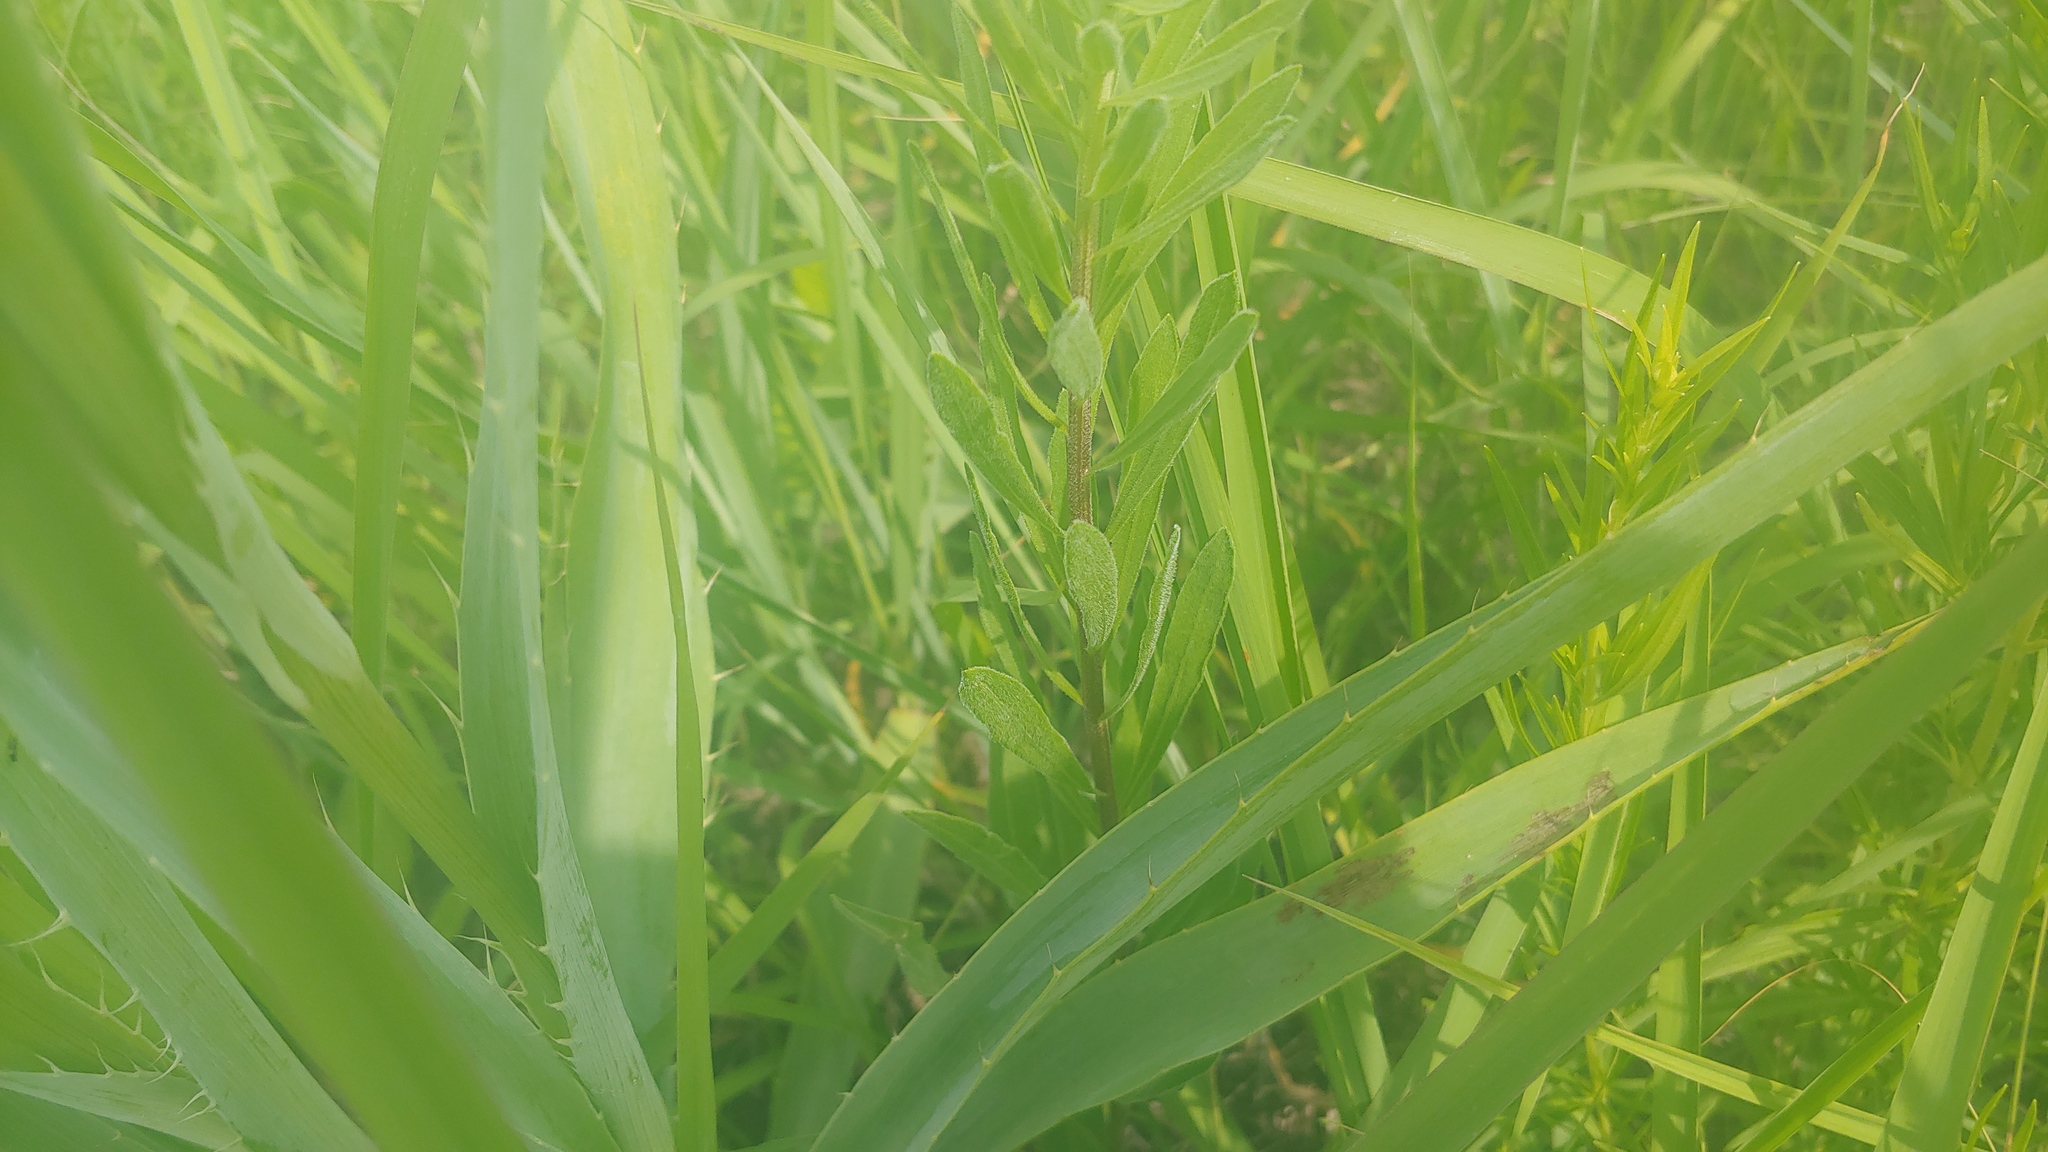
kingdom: Plantae
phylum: Tracheophyta
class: Magnoliopsida
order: Asterales
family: Asteraceae
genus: Liatris
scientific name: Liatris aspera
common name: Lacerate blazing-star
